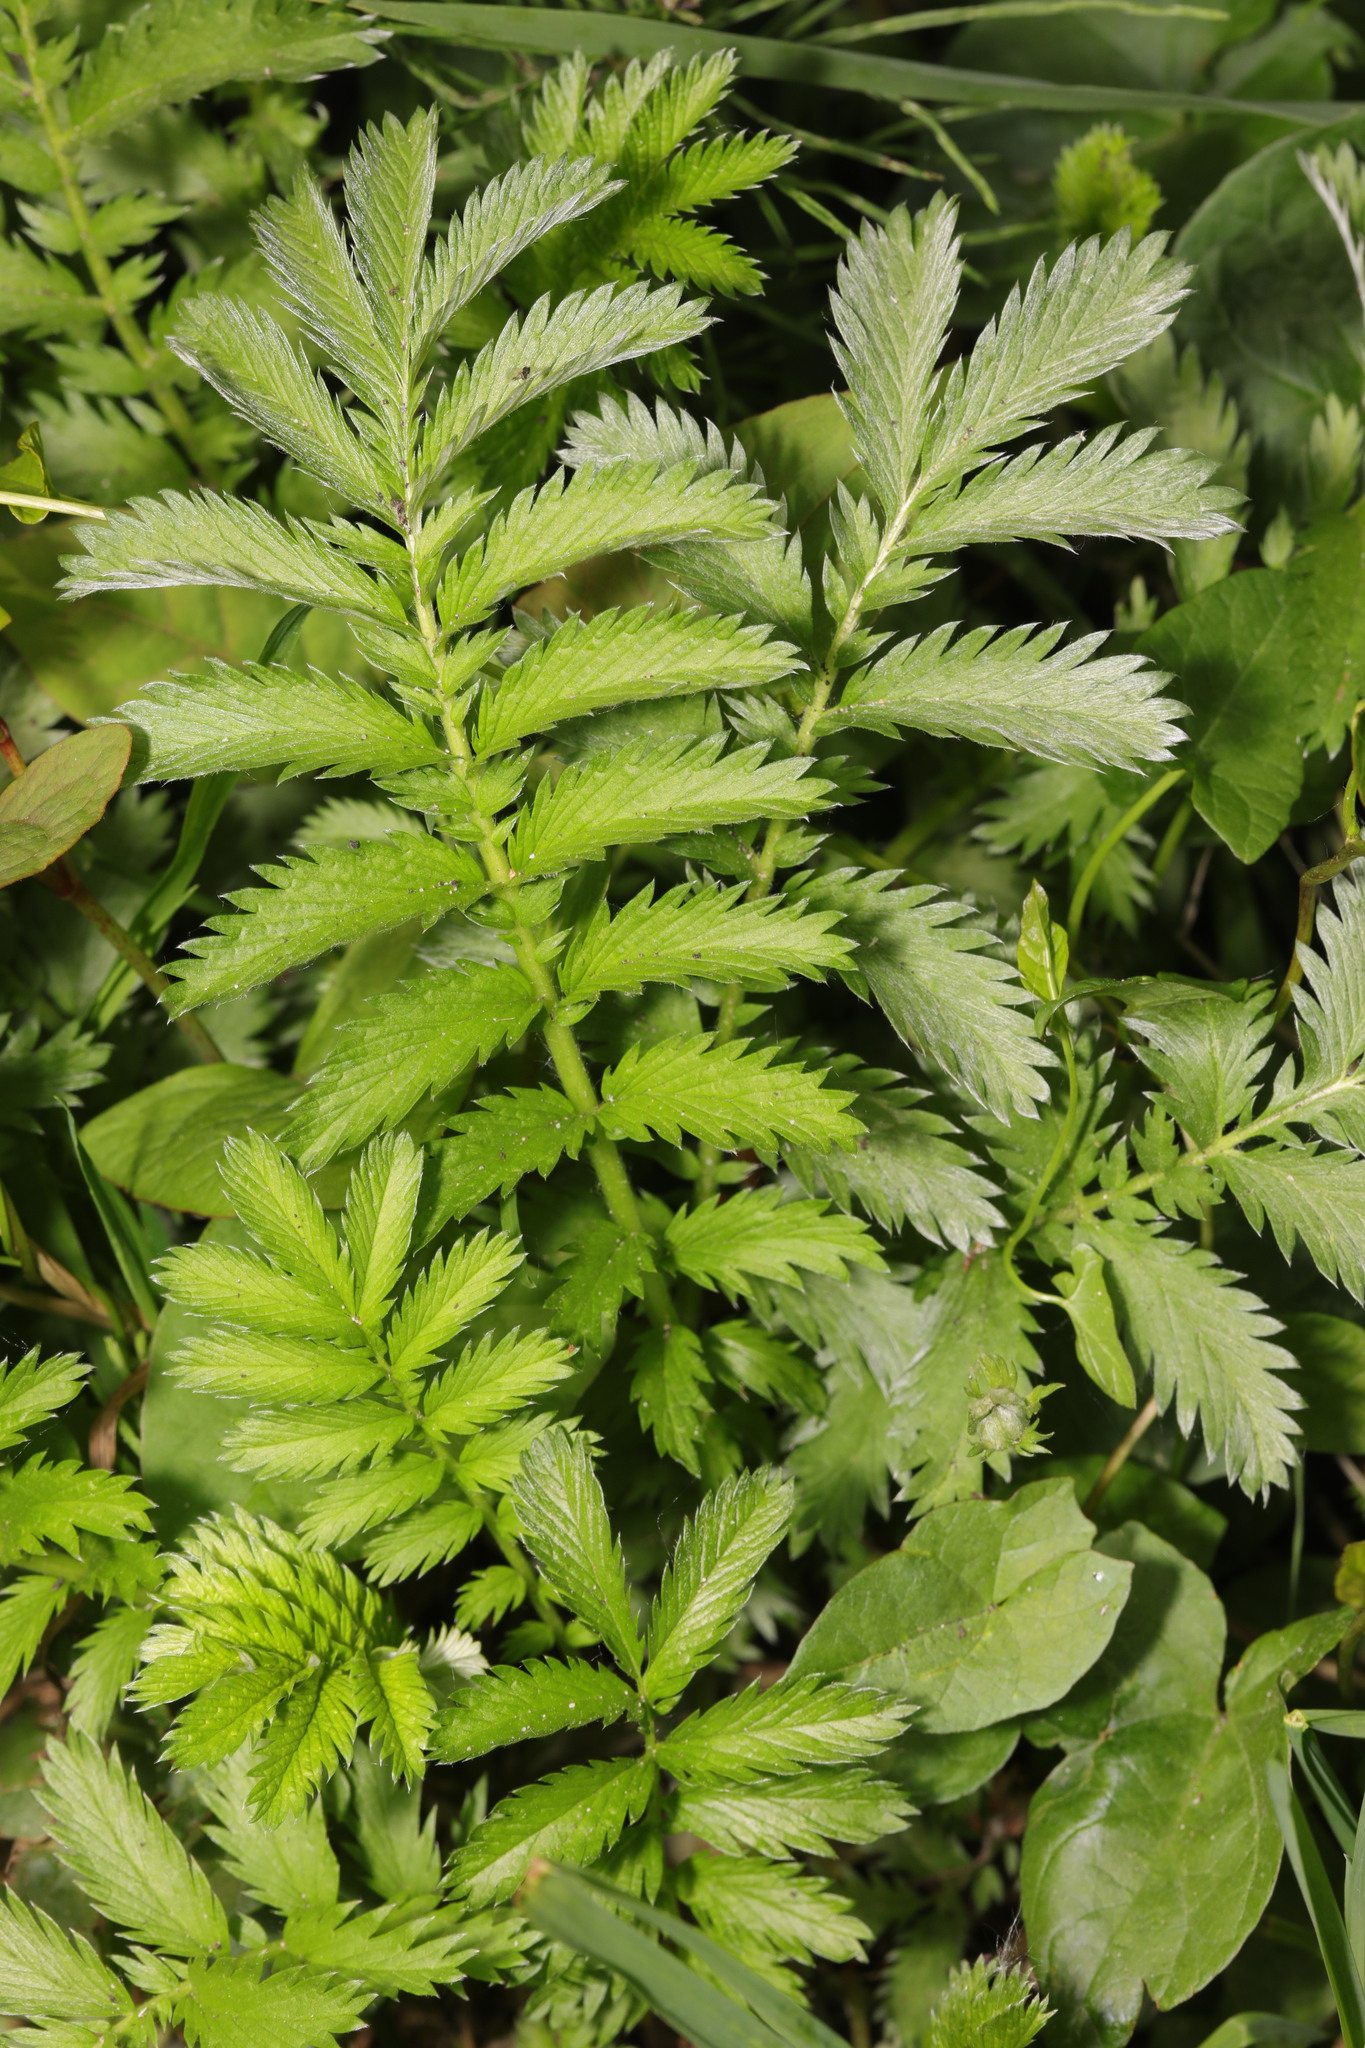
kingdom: Plantae
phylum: Tracheophyta
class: Magnoliopsida
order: Rosales
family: Rosaceae
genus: Argentina
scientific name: Argentina anserina
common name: Common silverweed
